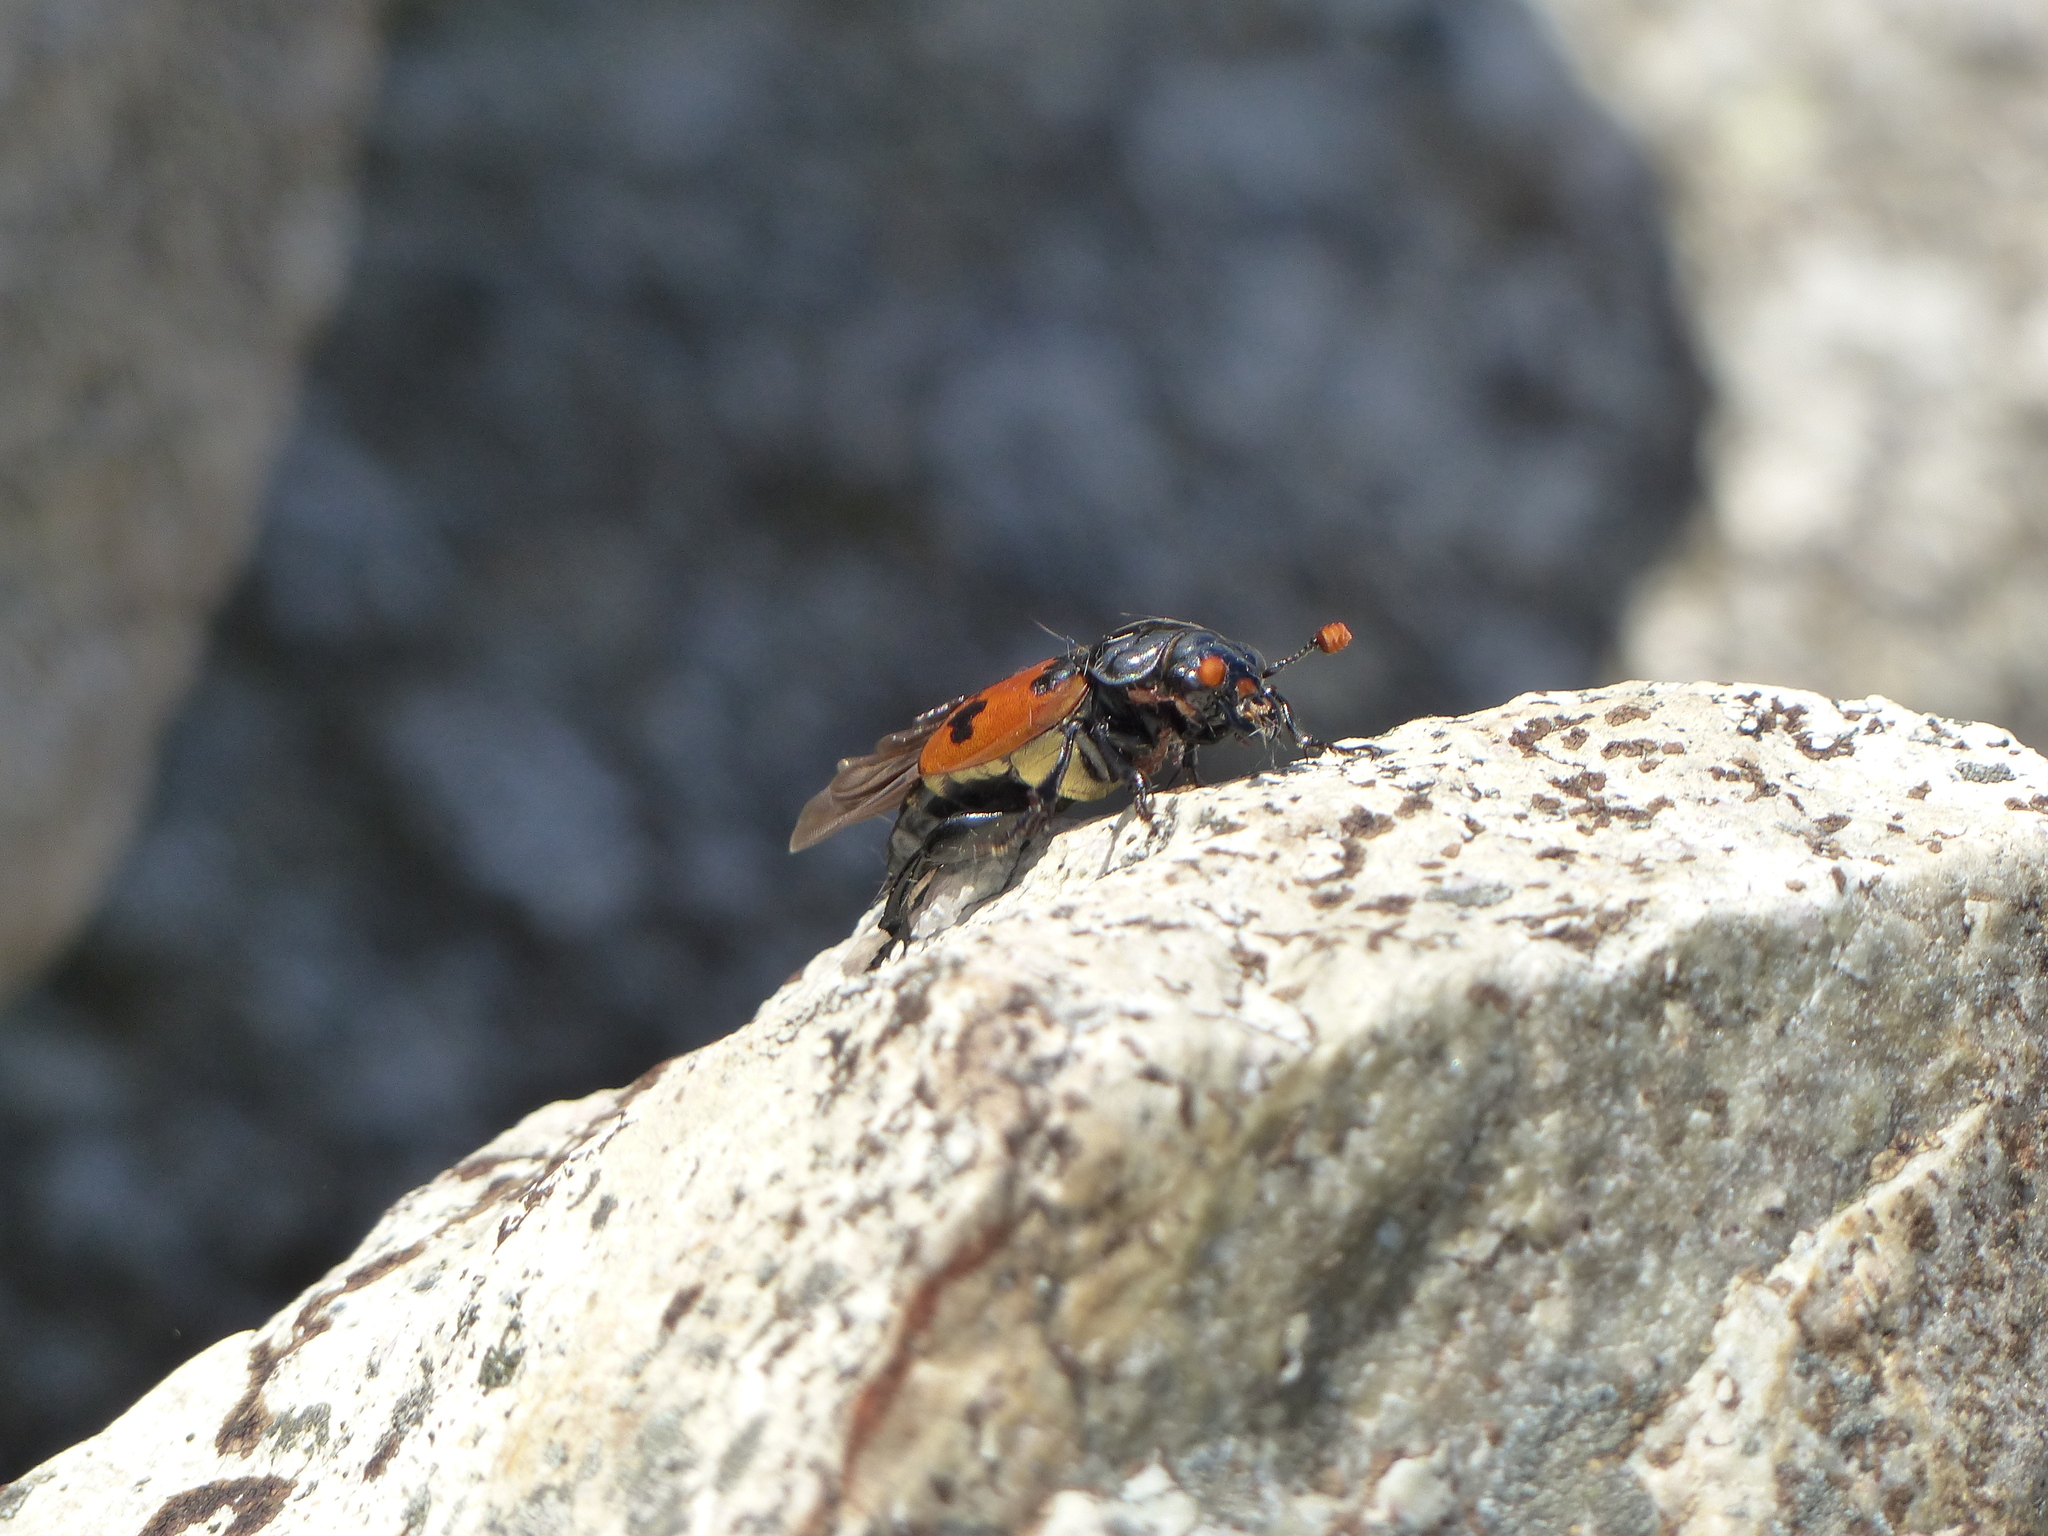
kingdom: Animalia
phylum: Arthropoda
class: Insecta
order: Coleoptera
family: Staphylinidae
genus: Nicrophorus
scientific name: Nicrophorus marginatus
